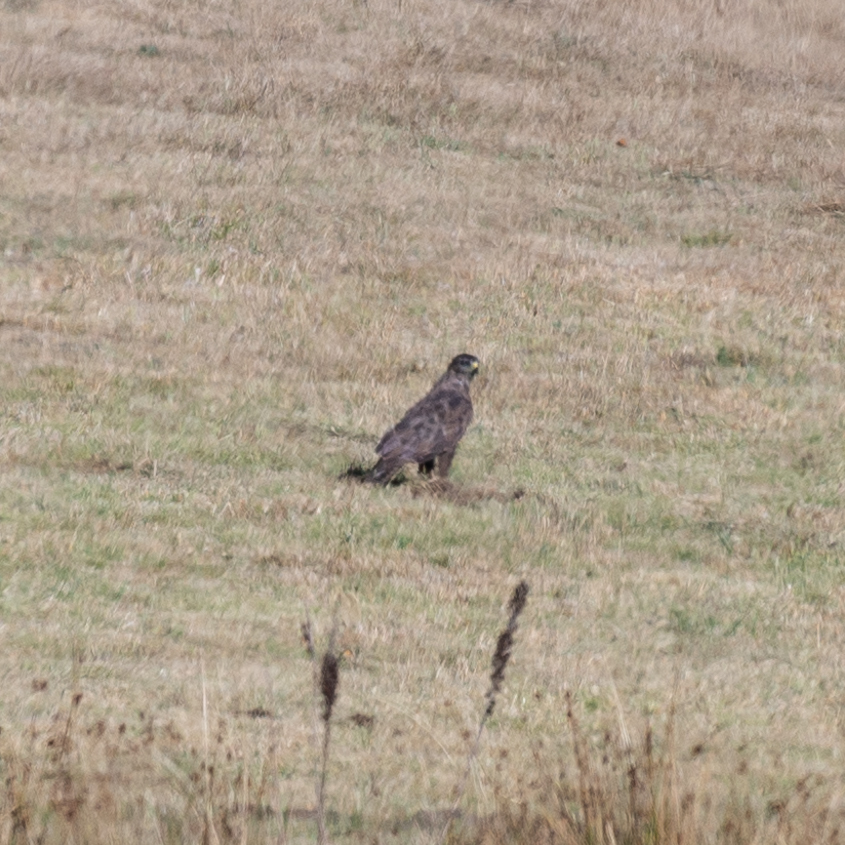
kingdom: Animalia
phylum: Chordata
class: Aves
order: Accipitriformes
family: Accipitridae
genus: Buteo
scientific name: Buteo buteo
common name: Common buzzard
